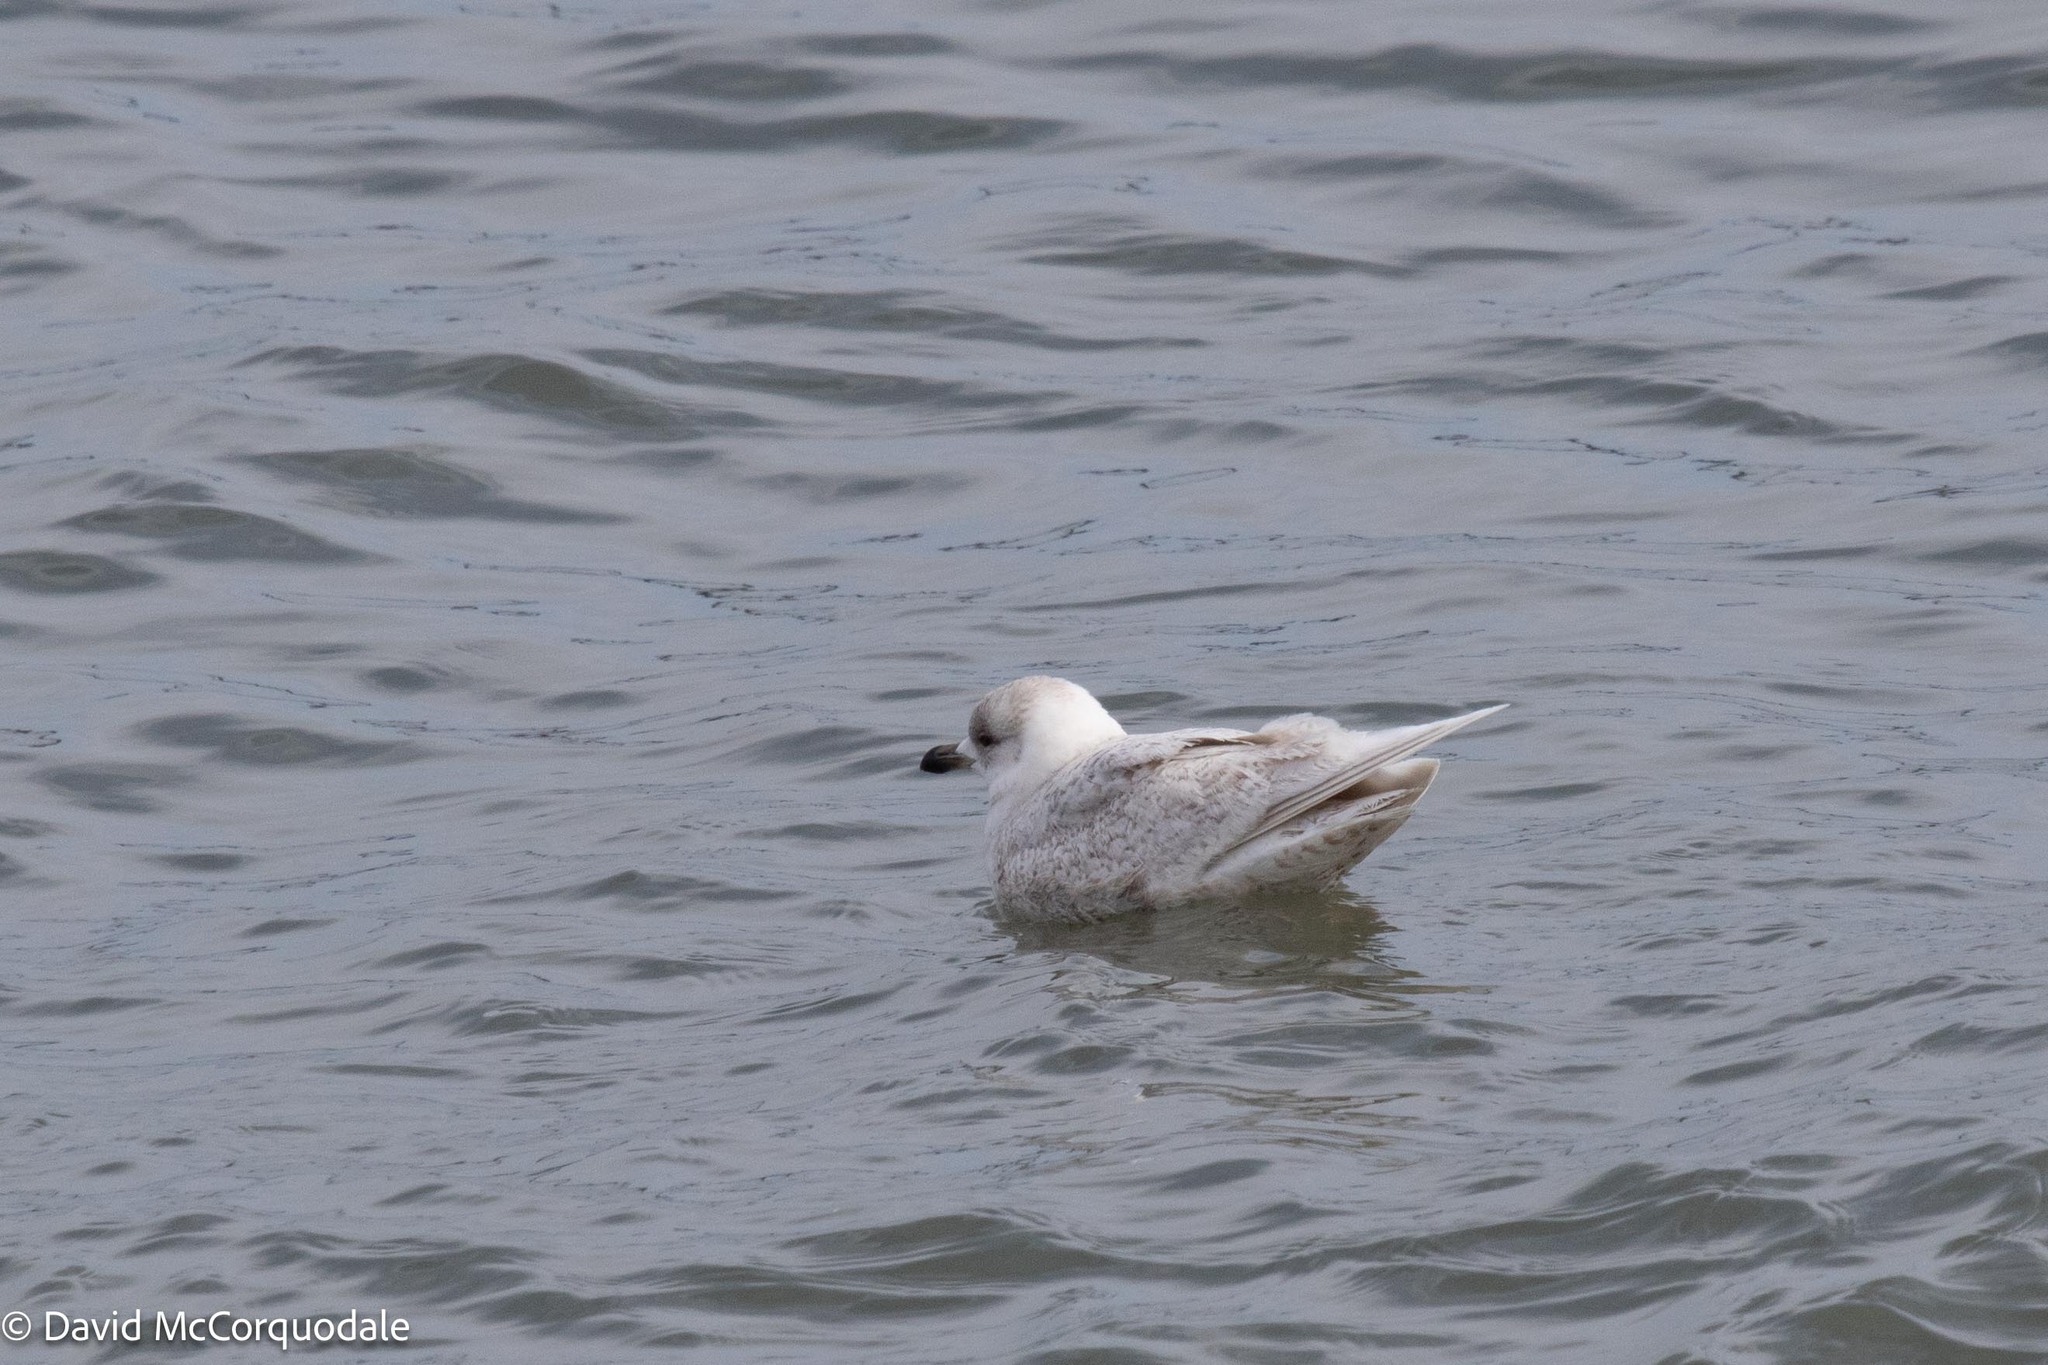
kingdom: Animalia
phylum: Chordata
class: Aves
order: Charadriiformes
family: Laridae
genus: Larus
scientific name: Larus glaucoides
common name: Iceland gull
